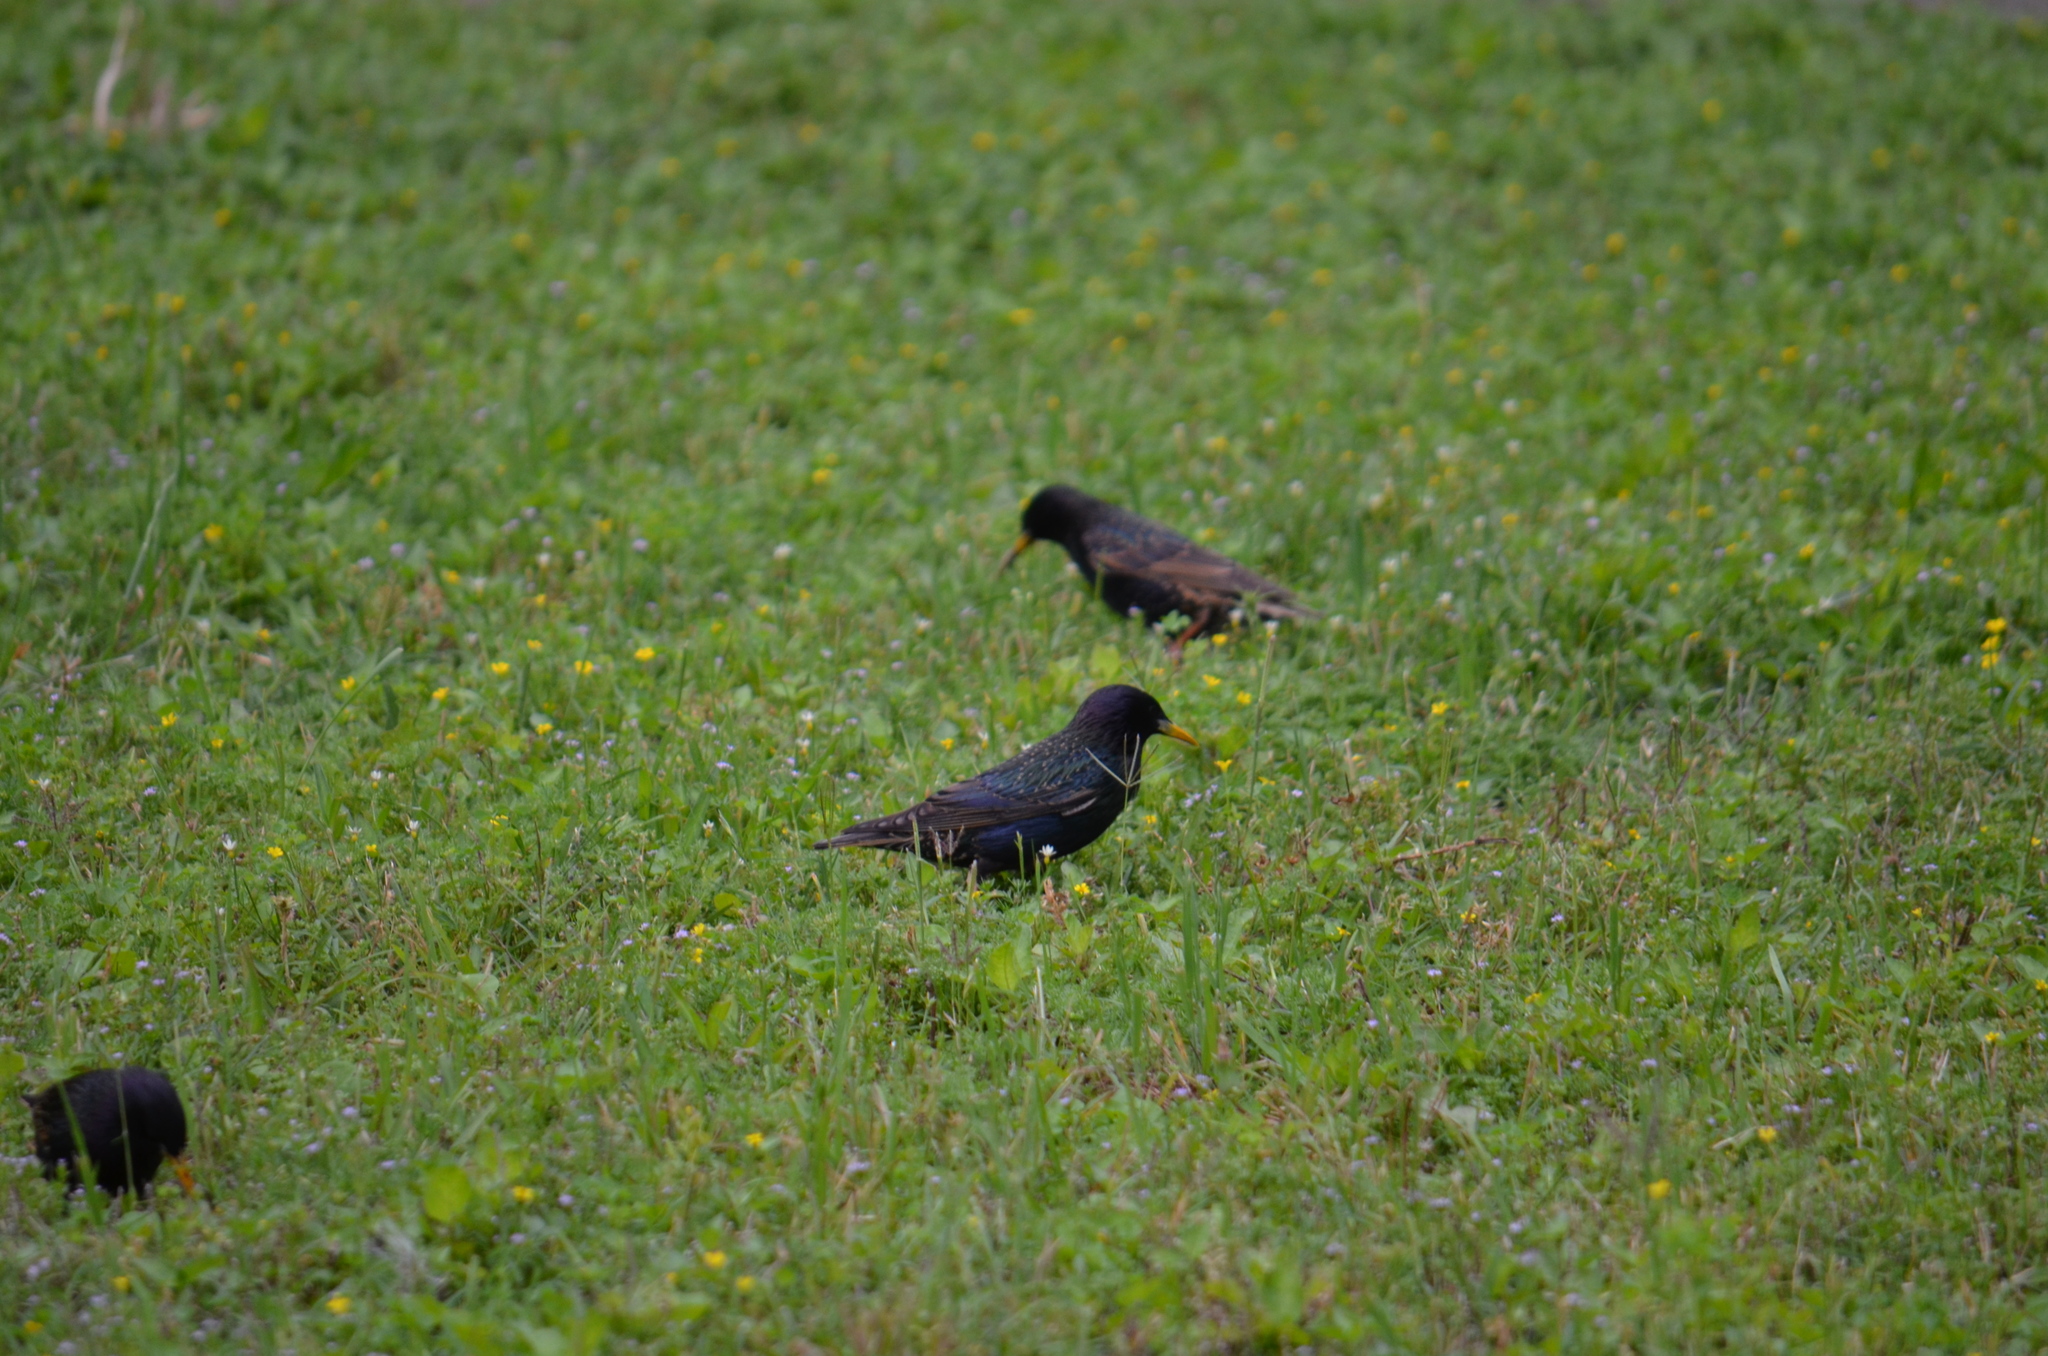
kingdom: Animalia
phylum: Chordata
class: Aves
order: Passeriformes
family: Sturnidae
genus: Sturnus
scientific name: Sturnus vulgaris
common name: Common starling
